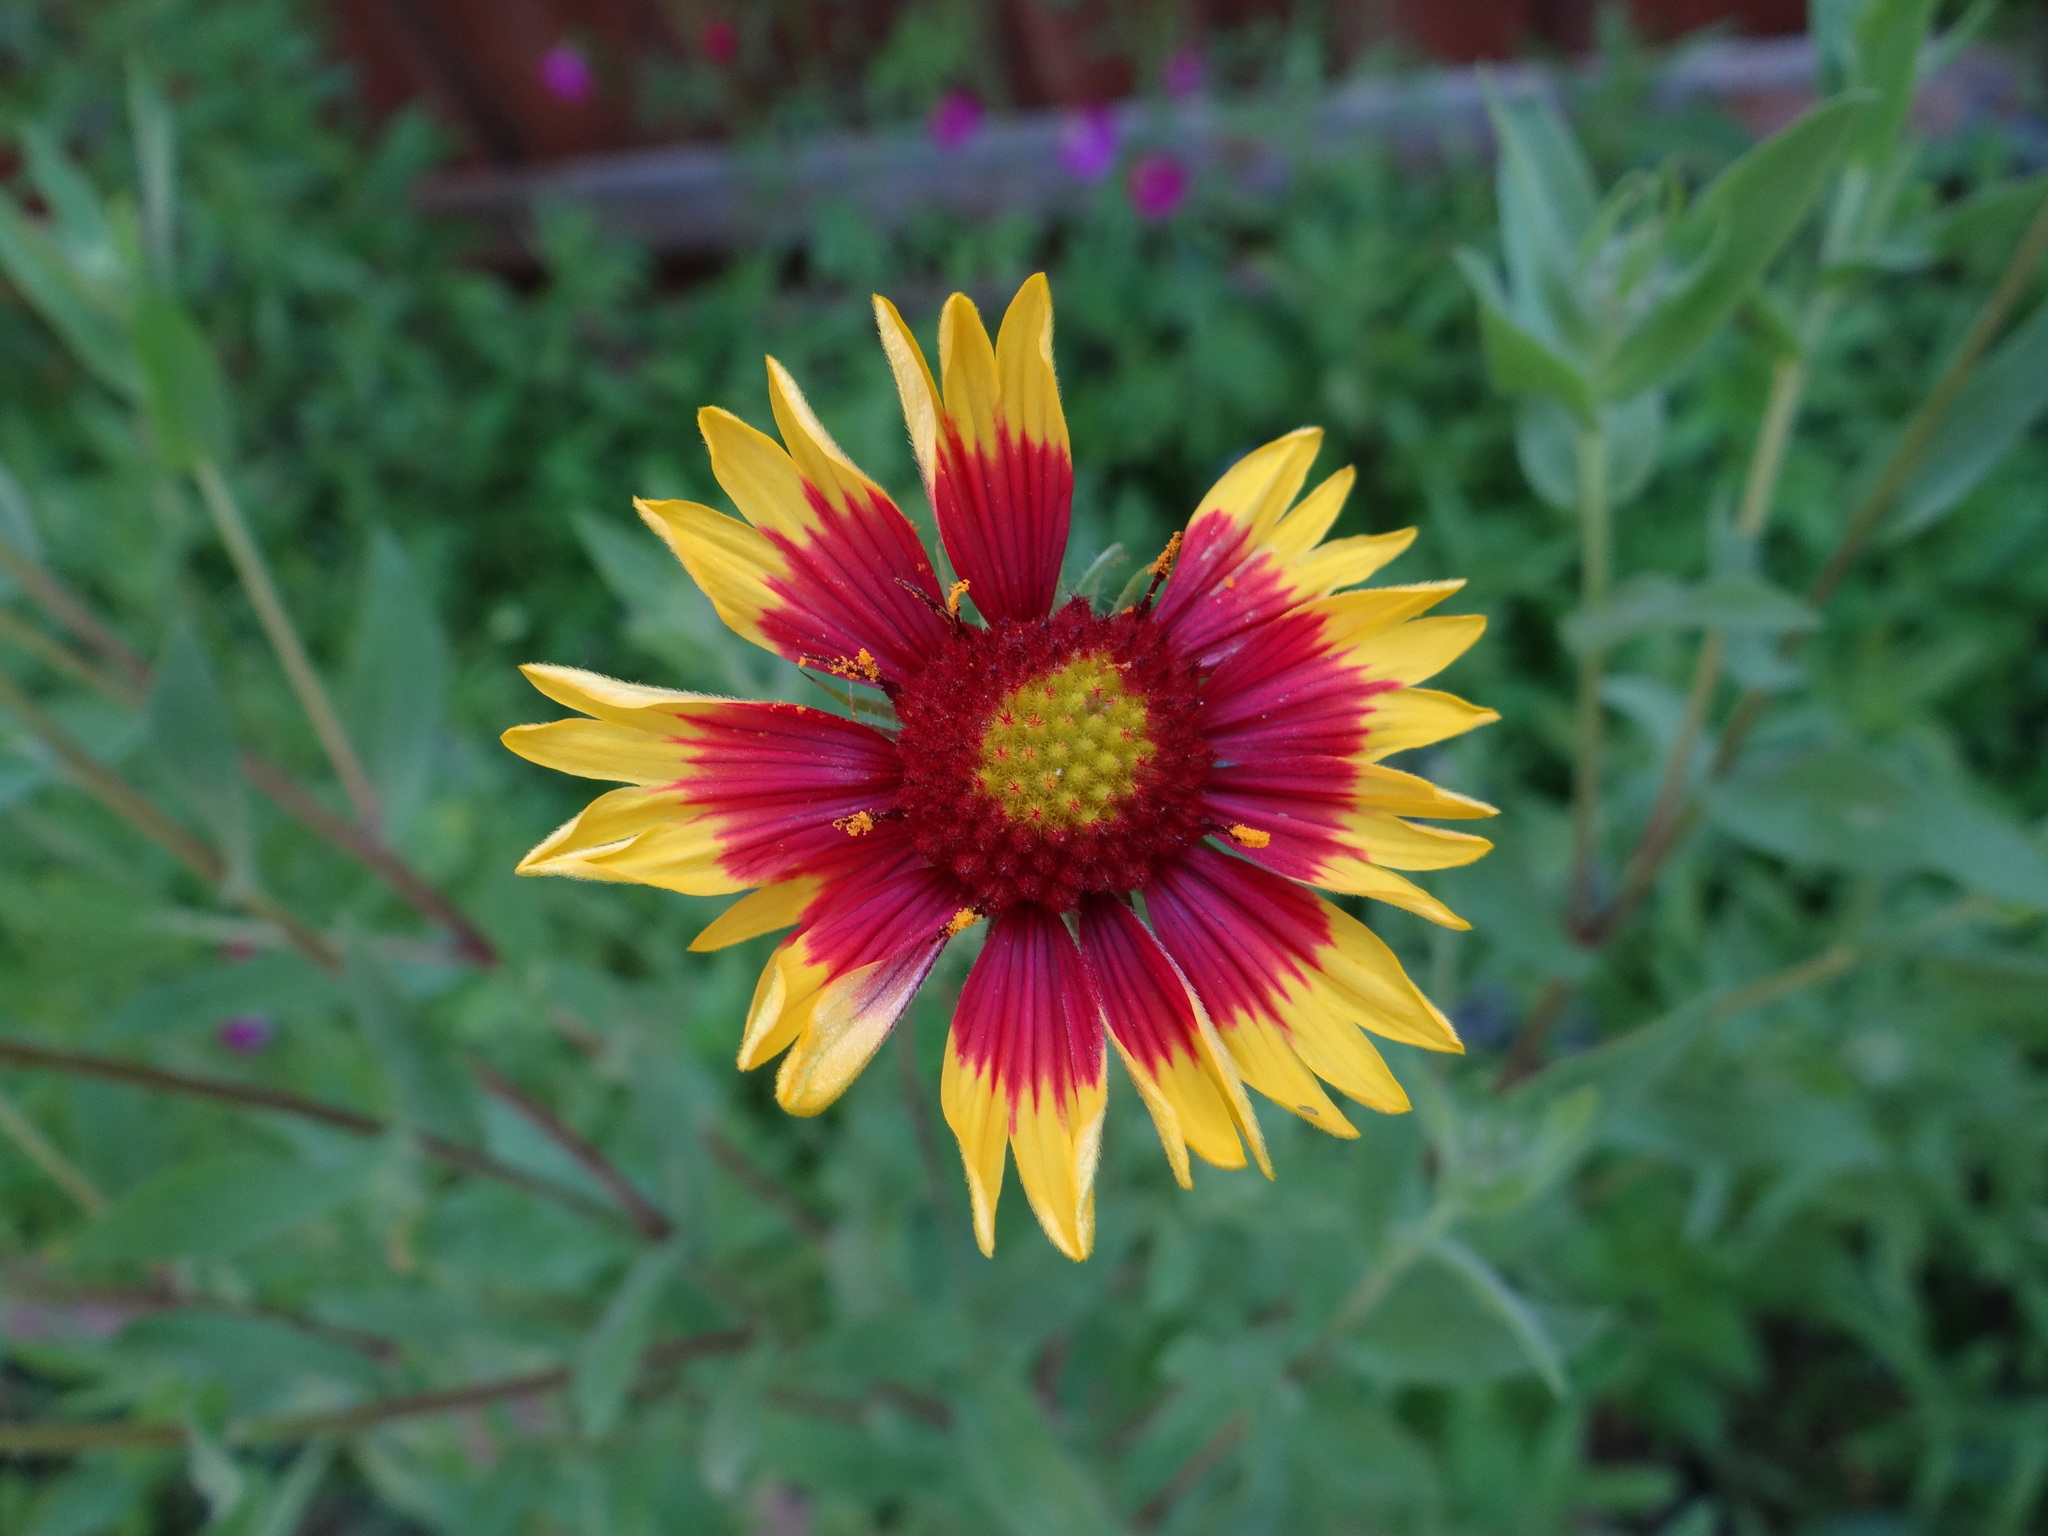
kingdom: Plantae
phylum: Tracheophyta
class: Magnoliopsida
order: Asterales
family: Asteraceae
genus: Gaillardia
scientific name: Gaillardia pulchella
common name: Firewheel
